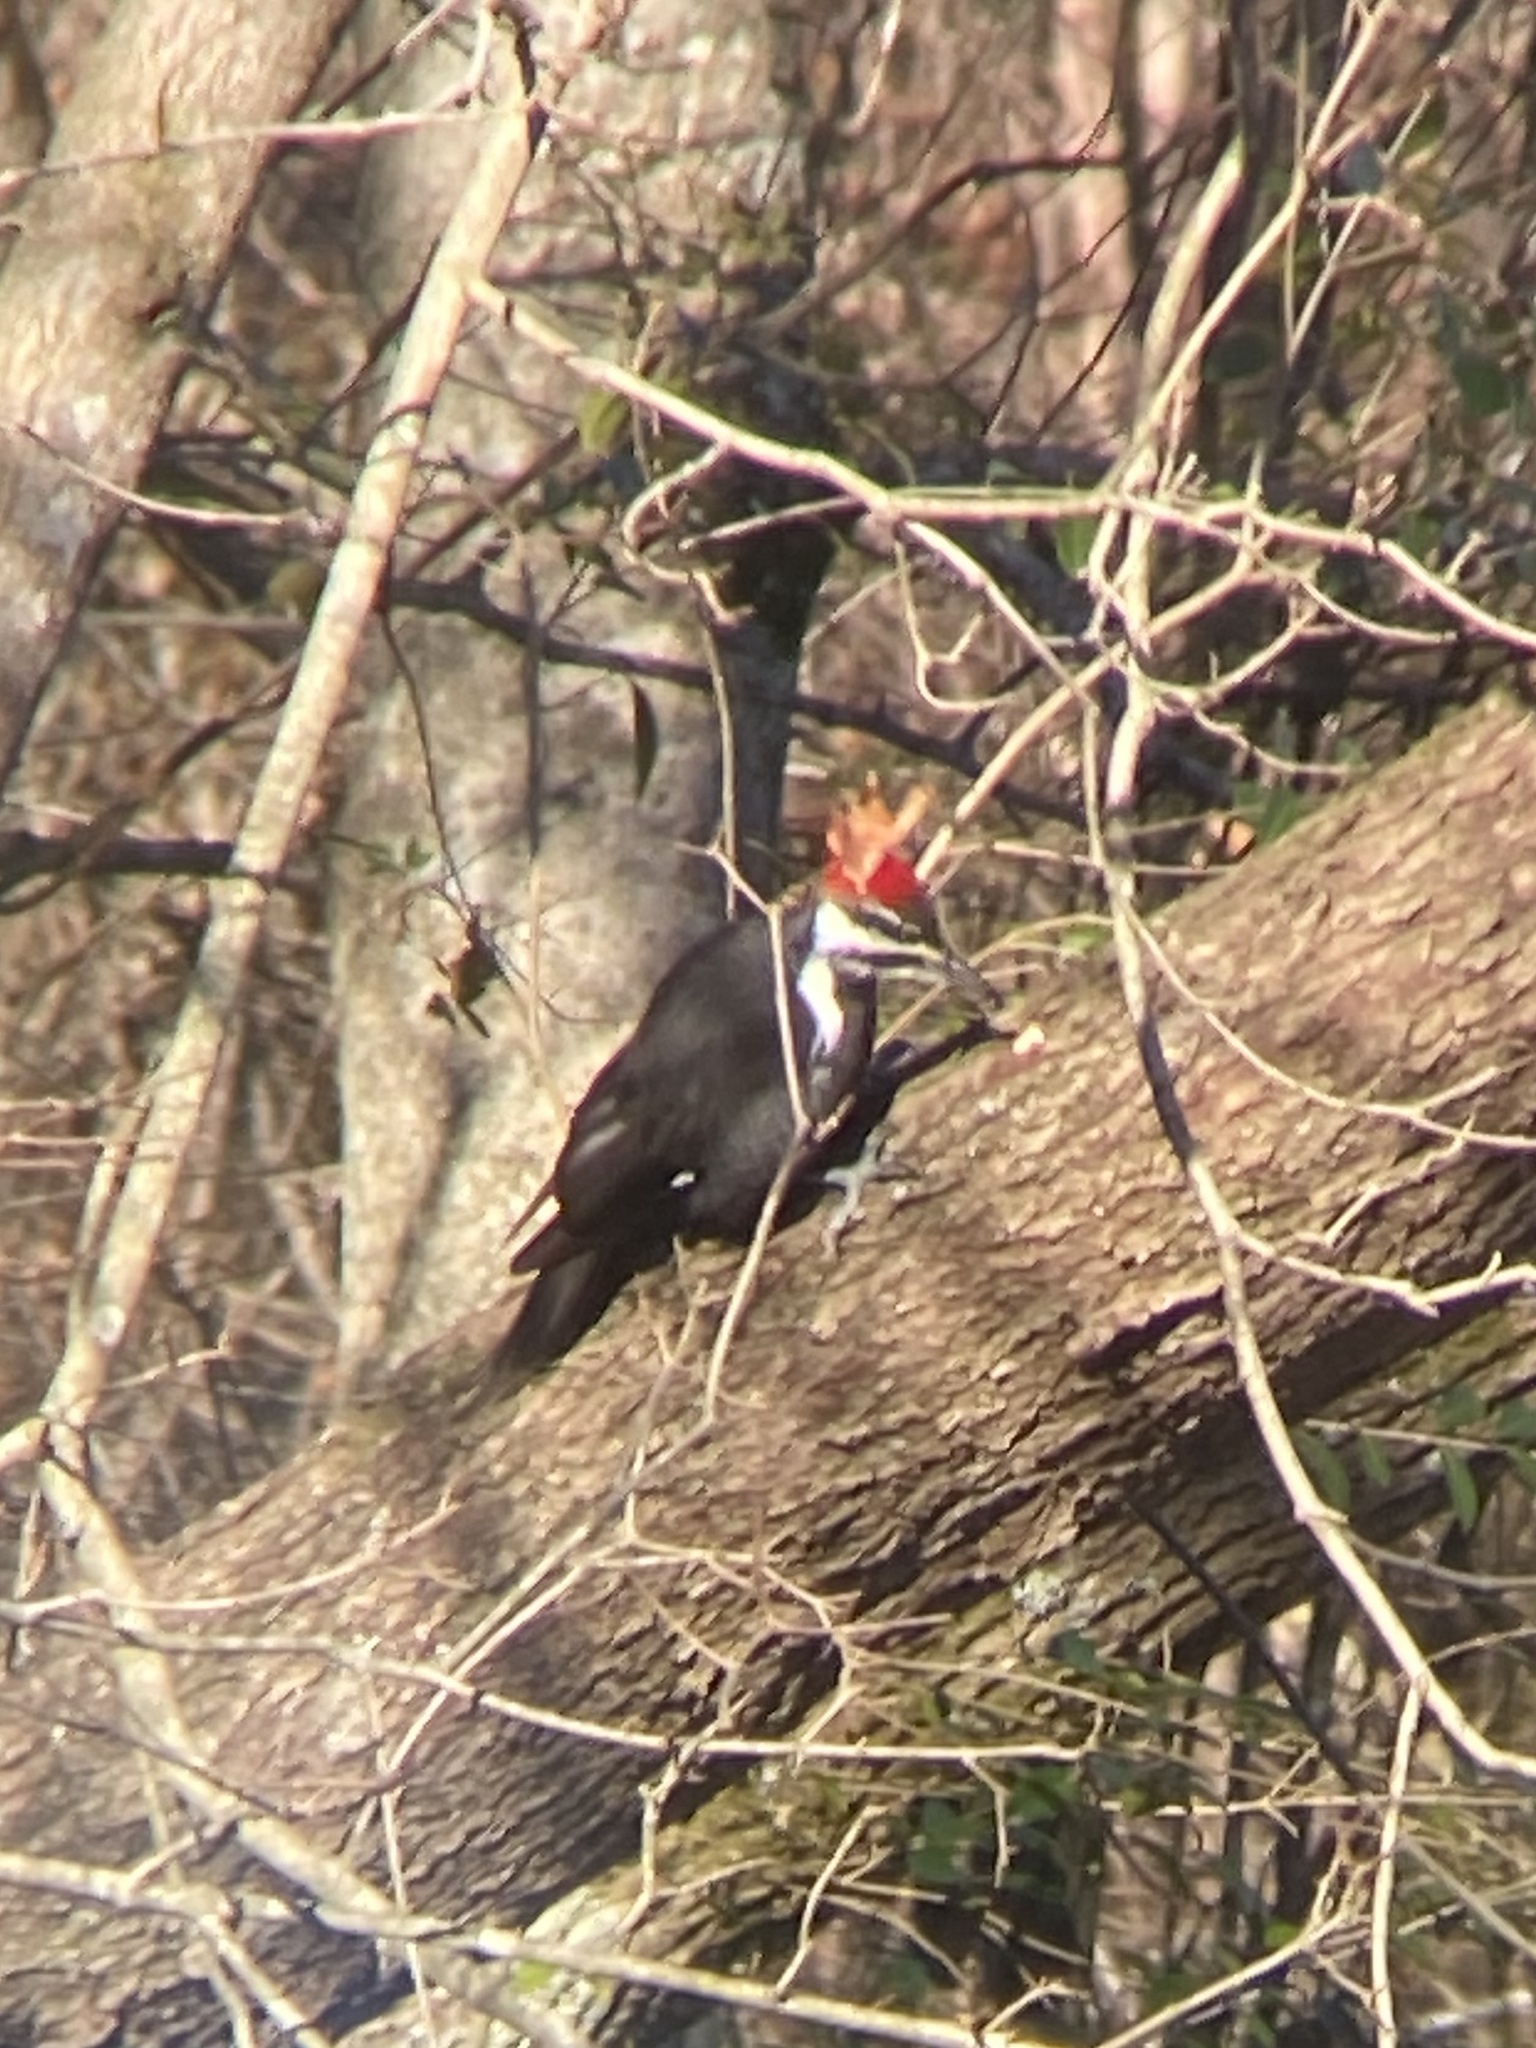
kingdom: Animalia
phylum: Chordata
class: Aves
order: Piciformes
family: Picidae
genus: Dryocopus
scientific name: Dryocopus pileatus
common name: Pileated woodpecker
